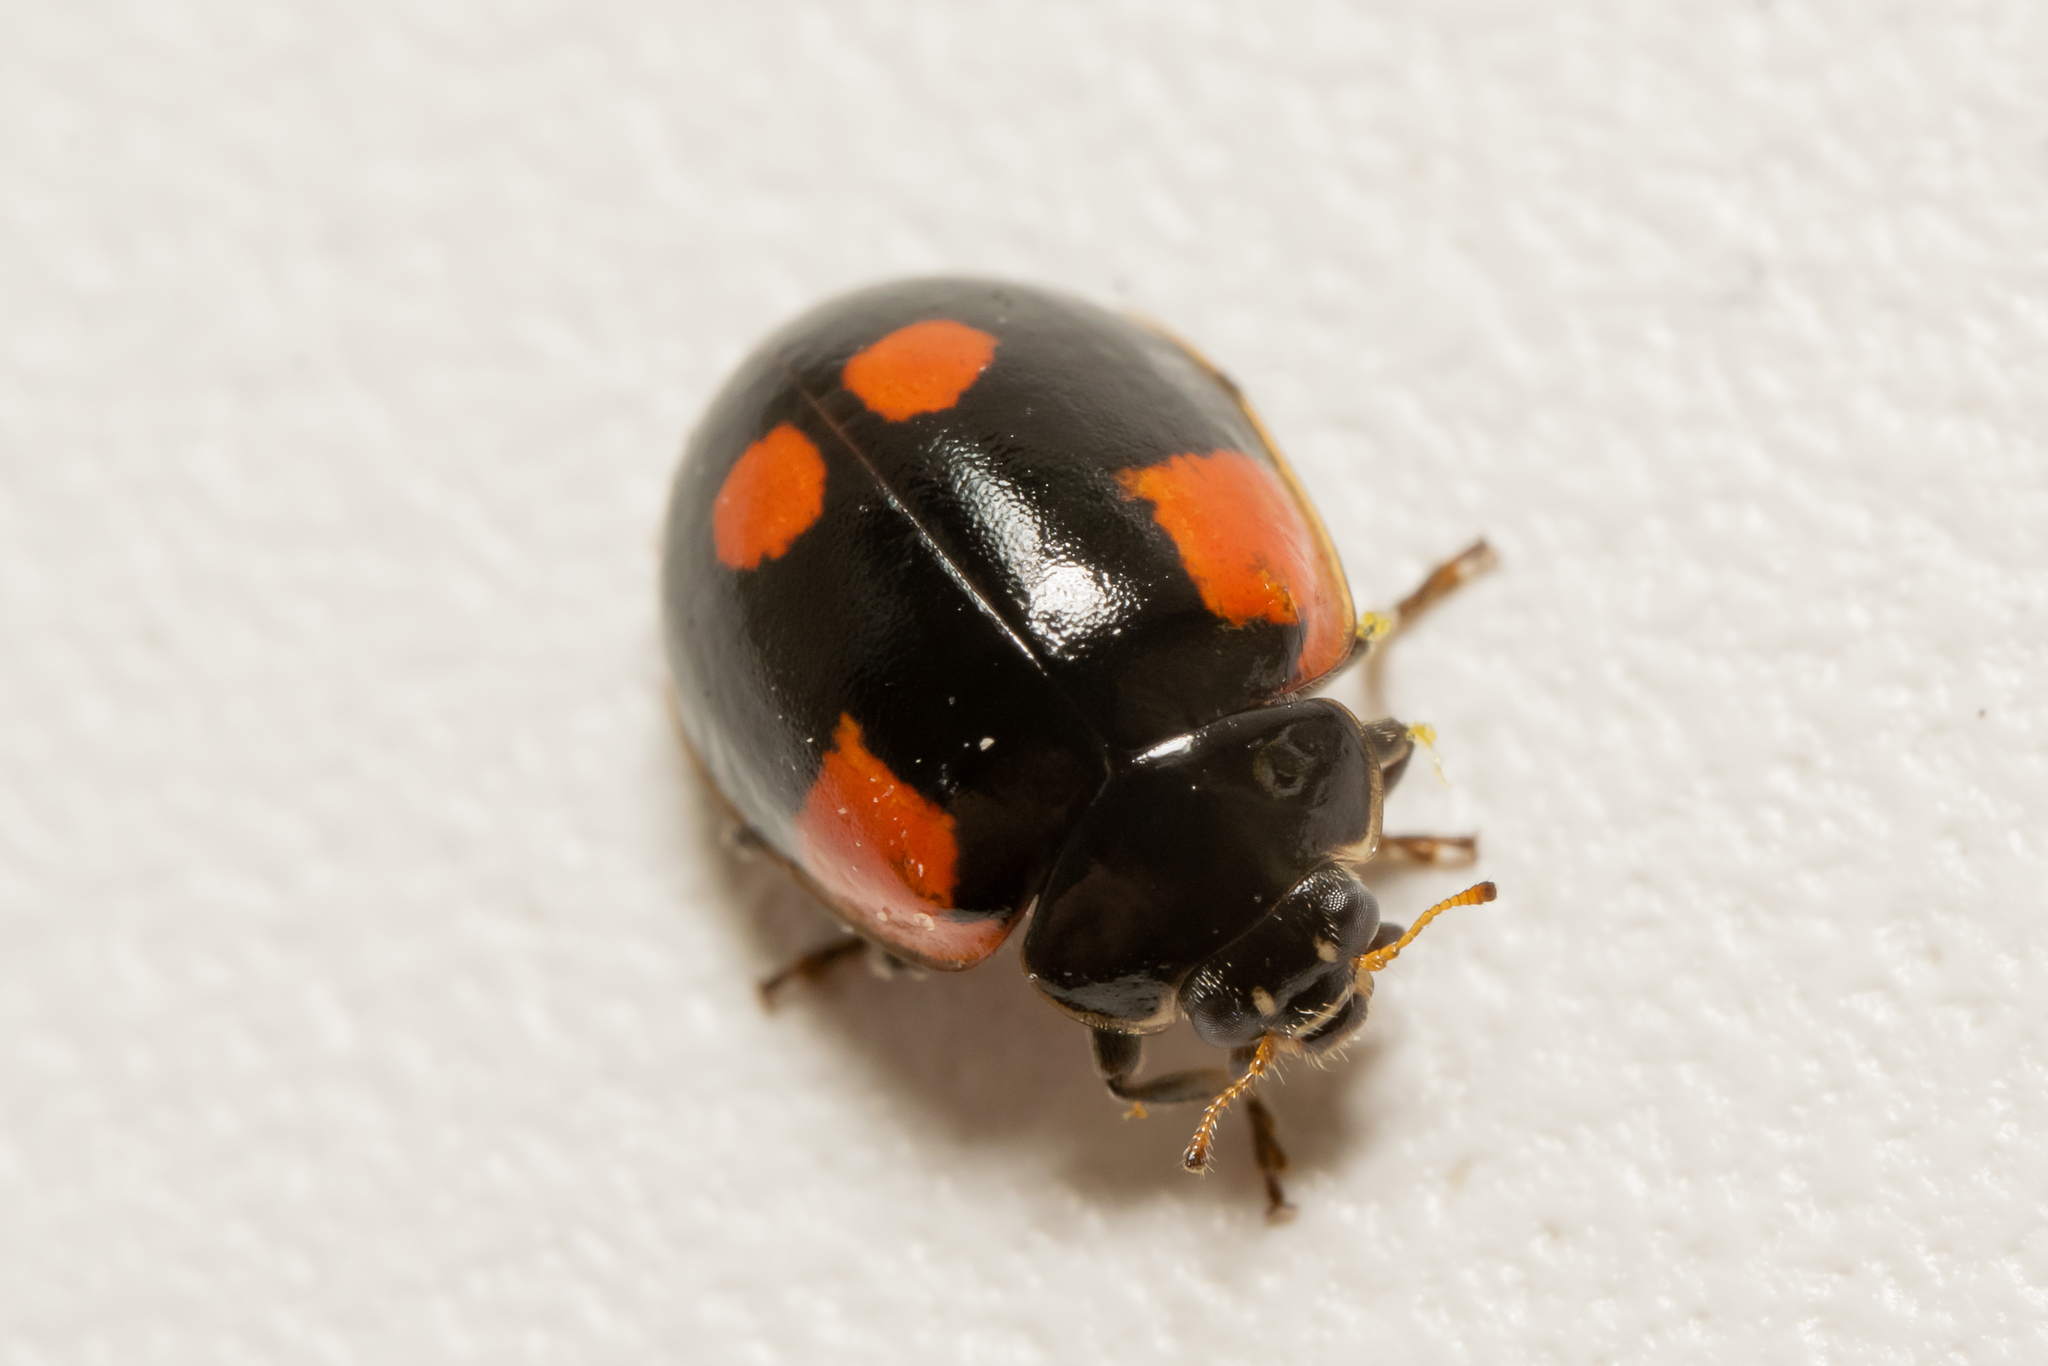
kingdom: Animalia
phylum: Arthropoda
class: Insecta
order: Coleoptera
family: Coccinellidae
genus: Adalia
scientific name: Adalia bipunctata
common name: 2-spot ladybird
